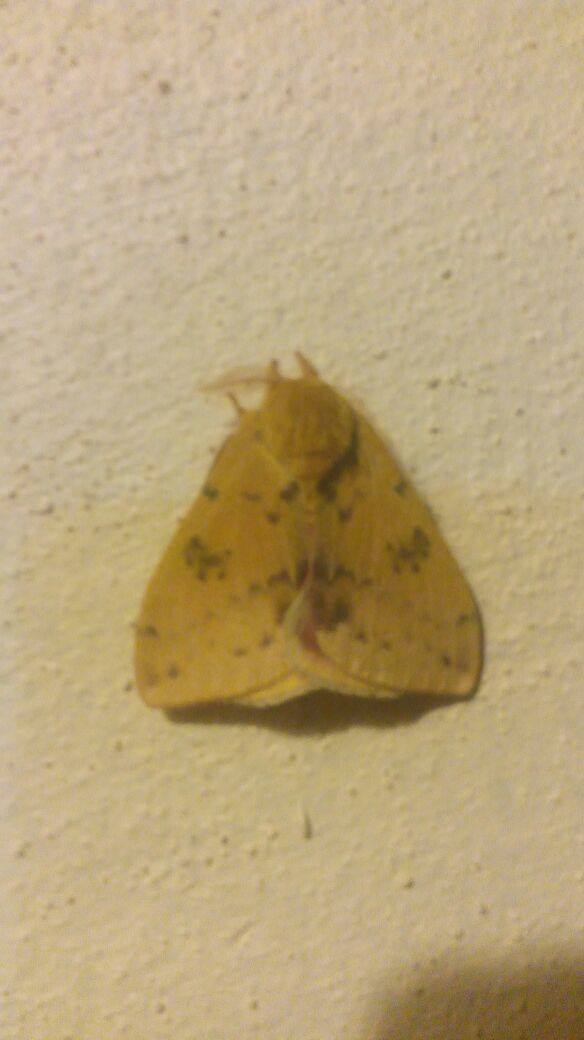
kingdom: Animalia
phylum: Arthropoda
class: Insecta
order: Lepidoptera
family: Saturniidae
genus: Automeris
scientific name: Automeris io
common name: Io moth
